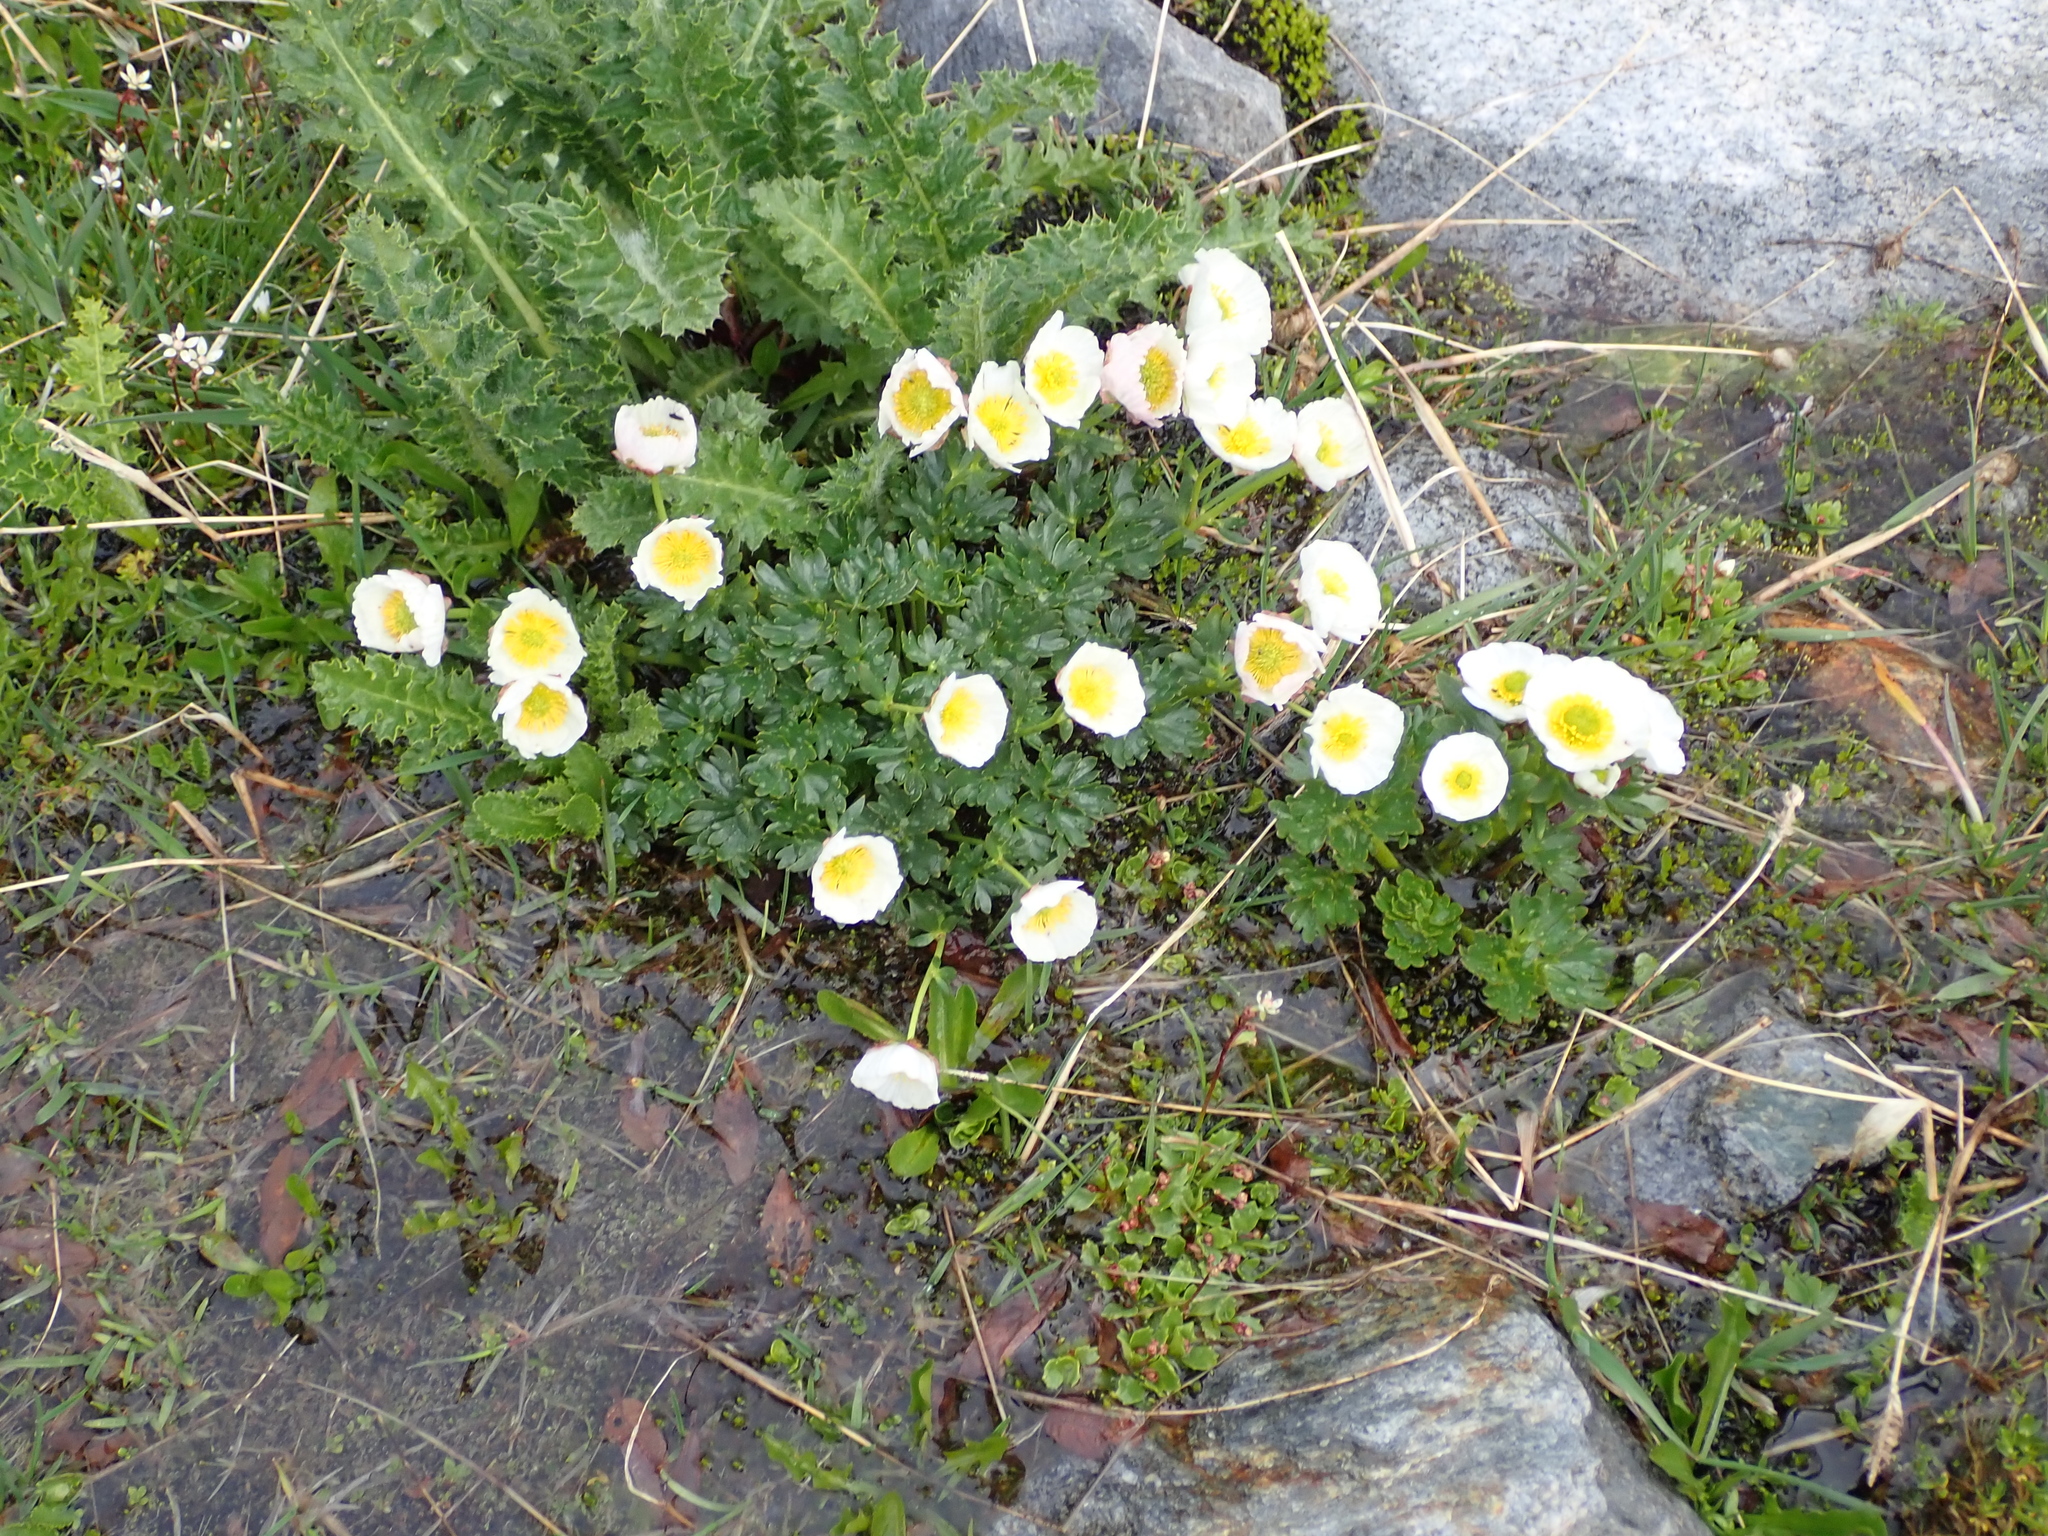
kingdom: Plantae
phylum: Tracheophyta
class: Magnoliopsida
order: Ranunculales
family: Ranunculaceae
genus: Ranunculus
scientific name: Ranunculus glacialis
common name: Glacier buttercup
